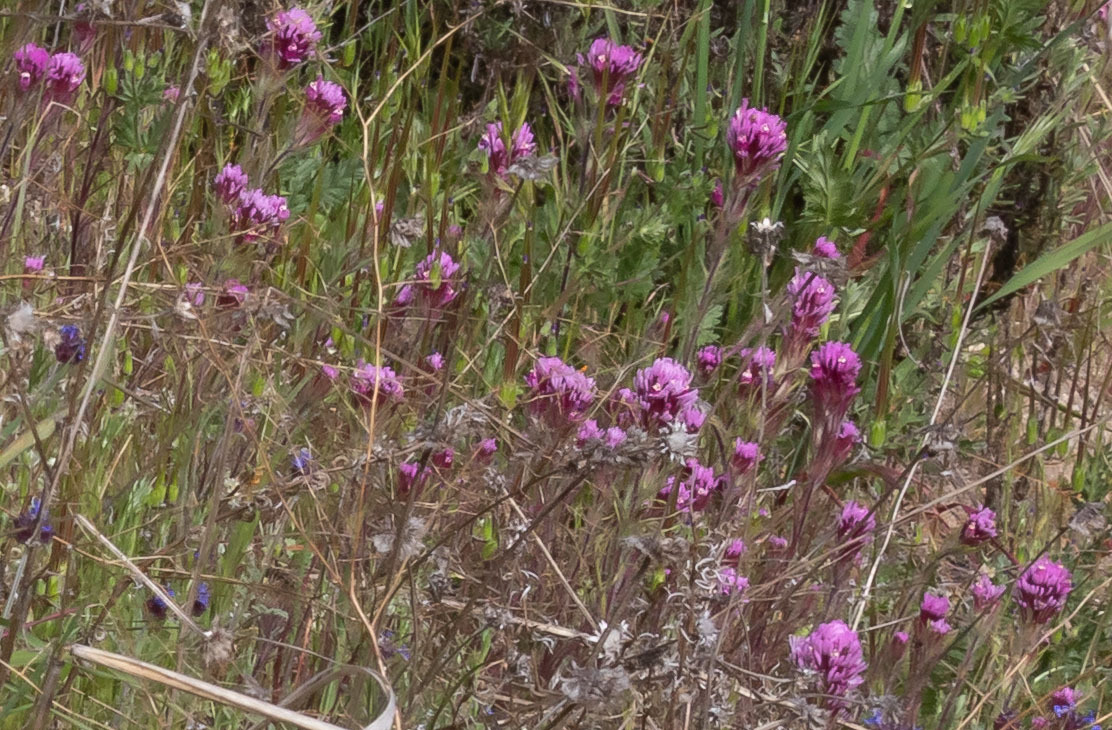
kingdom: Plantae
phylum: Tracheophyta
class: Magnoliopsida
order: Lamiales
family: Orobanchaceae
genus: Castilleja
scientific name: Castilleja exserta
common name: Purple owl-clover
